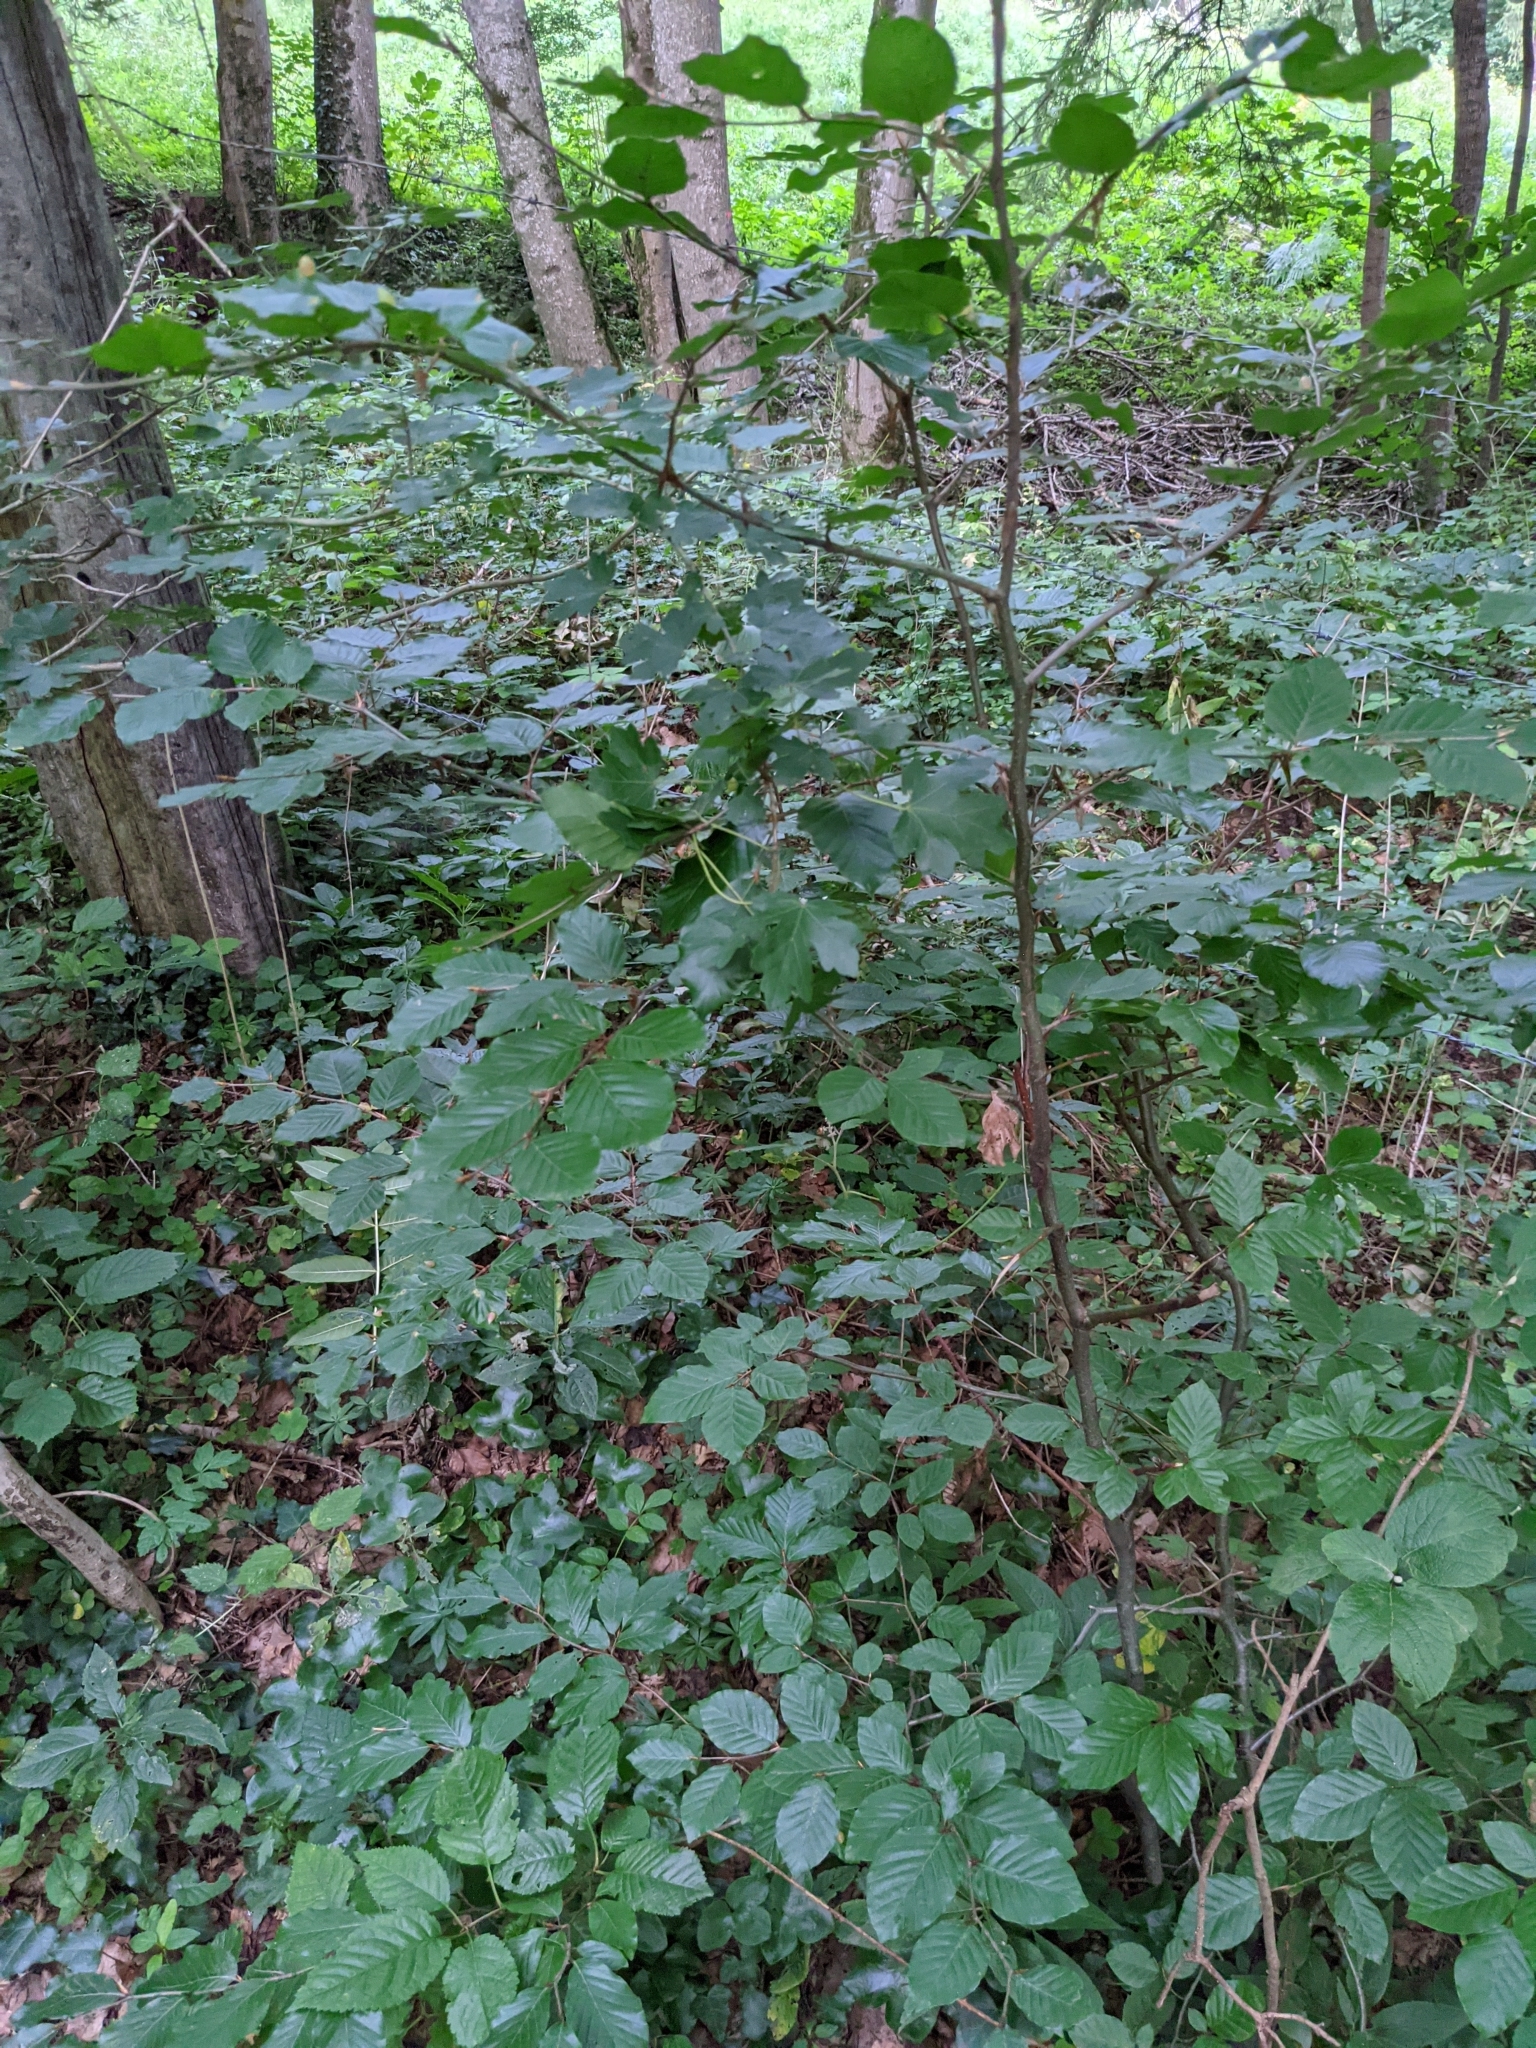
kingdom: Plantae
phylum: Tracheophyta
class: Magnoliopsida
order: Fagales
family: Fagaceae
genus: Fagus
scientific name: Fagus sylvatica
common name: Beech
